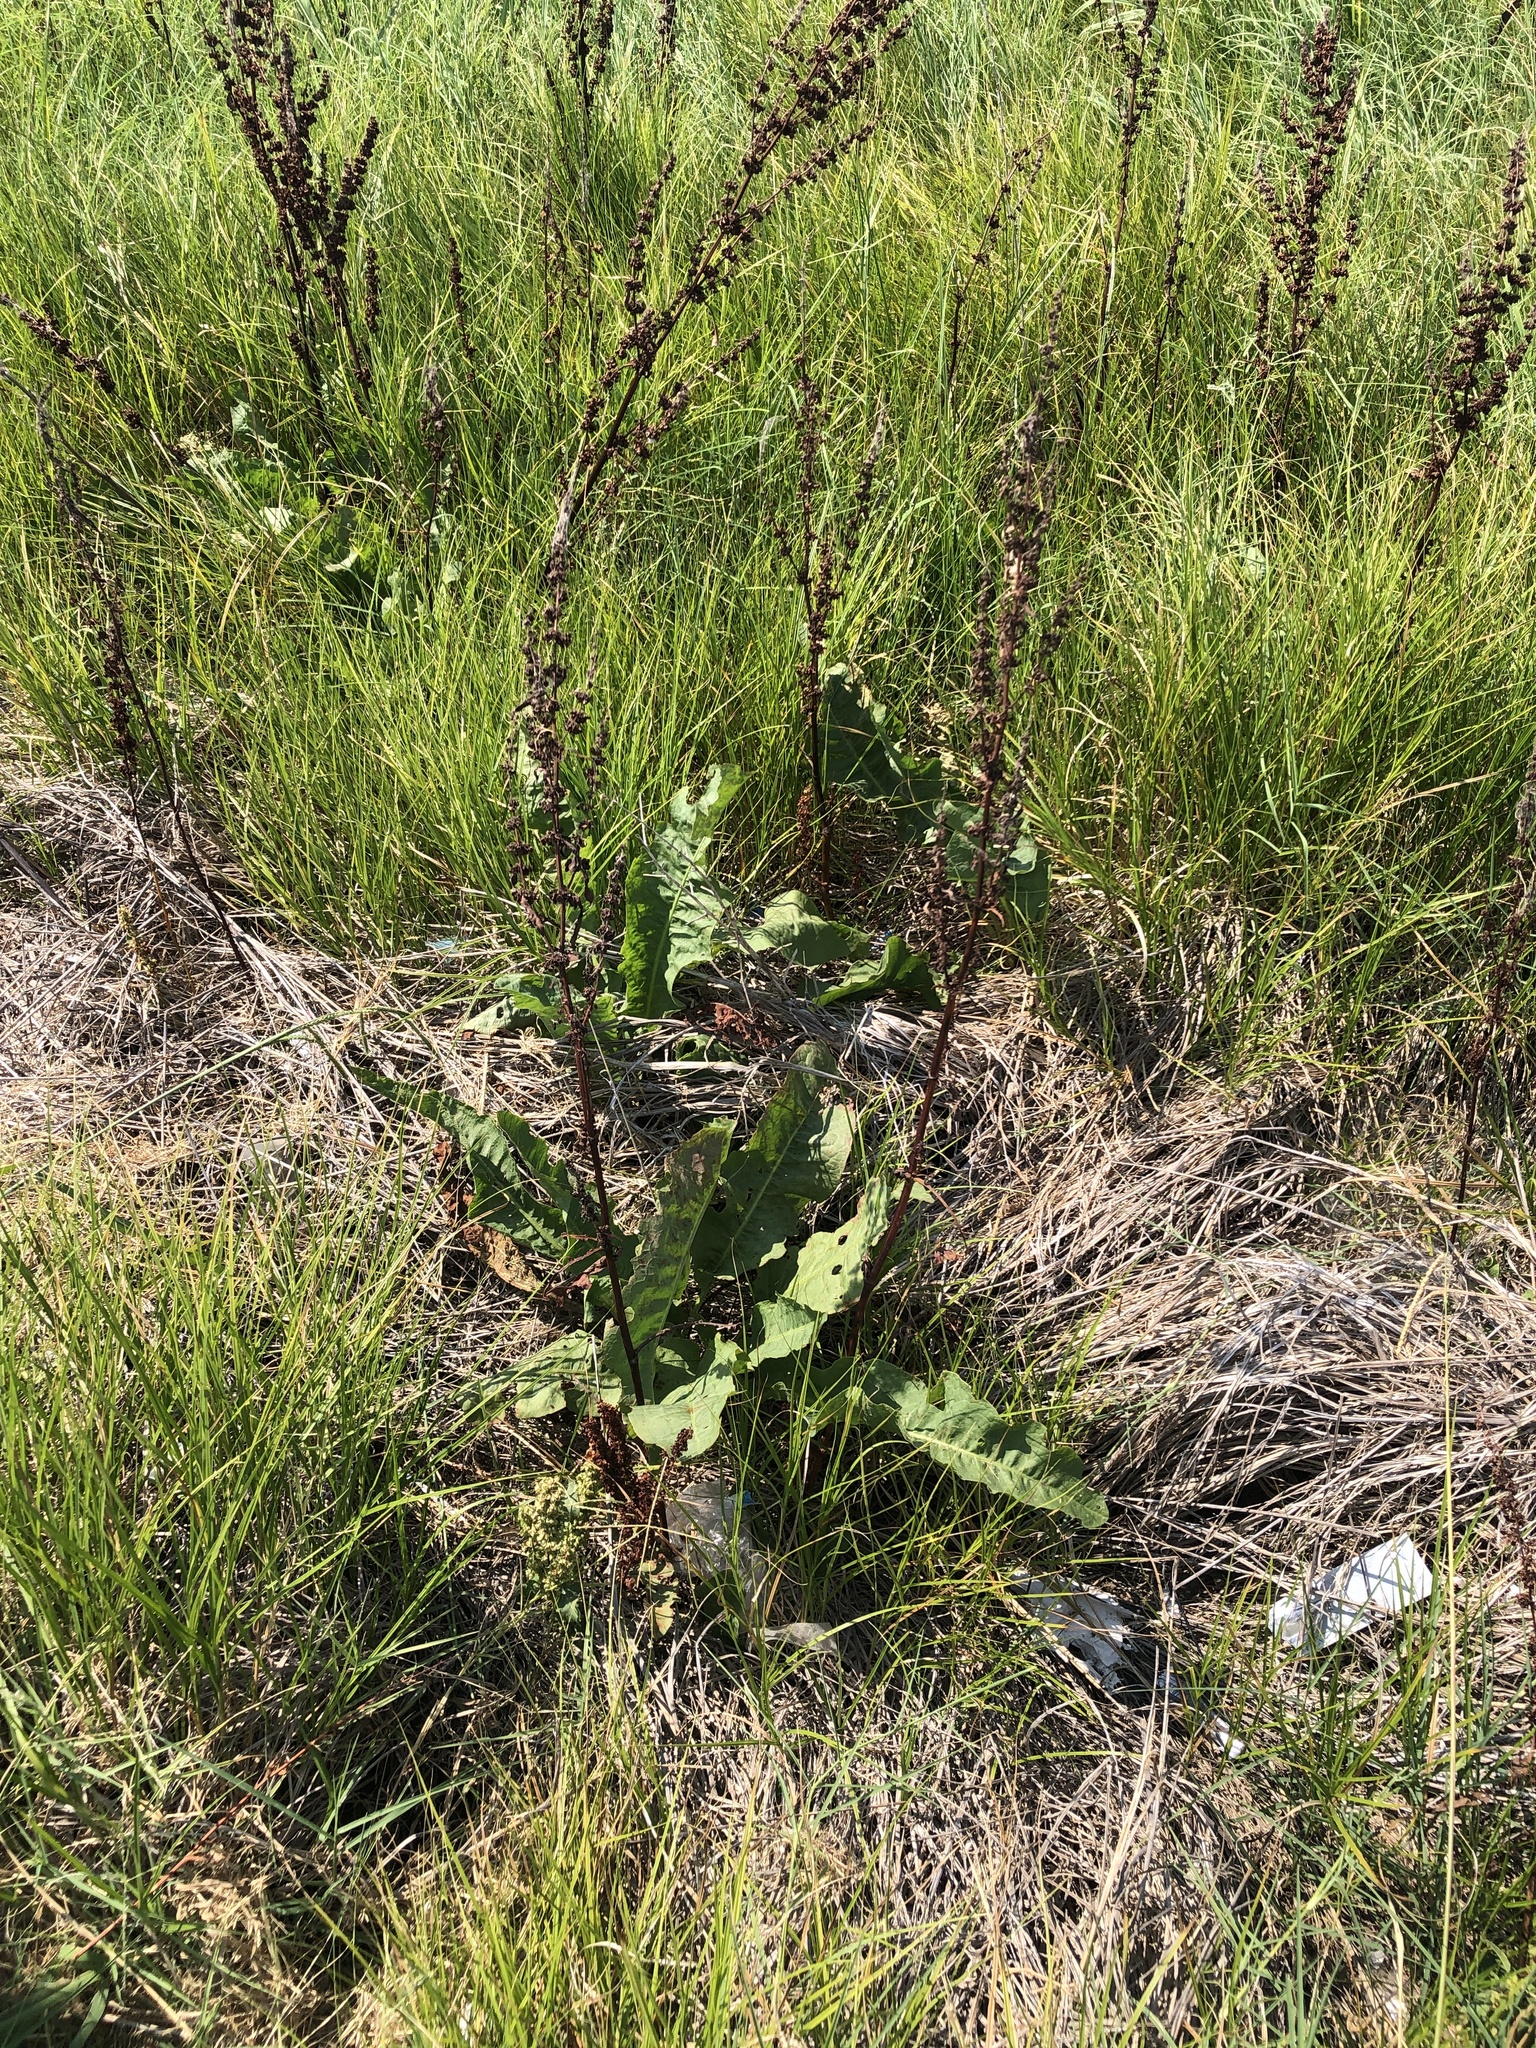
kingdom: Plantae
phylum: Tracheophyta
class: Magnoliopsida
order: Caryophyllales
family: Polygonaceae
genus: Rumex
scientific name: Rumex crispus
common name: Curled dock
